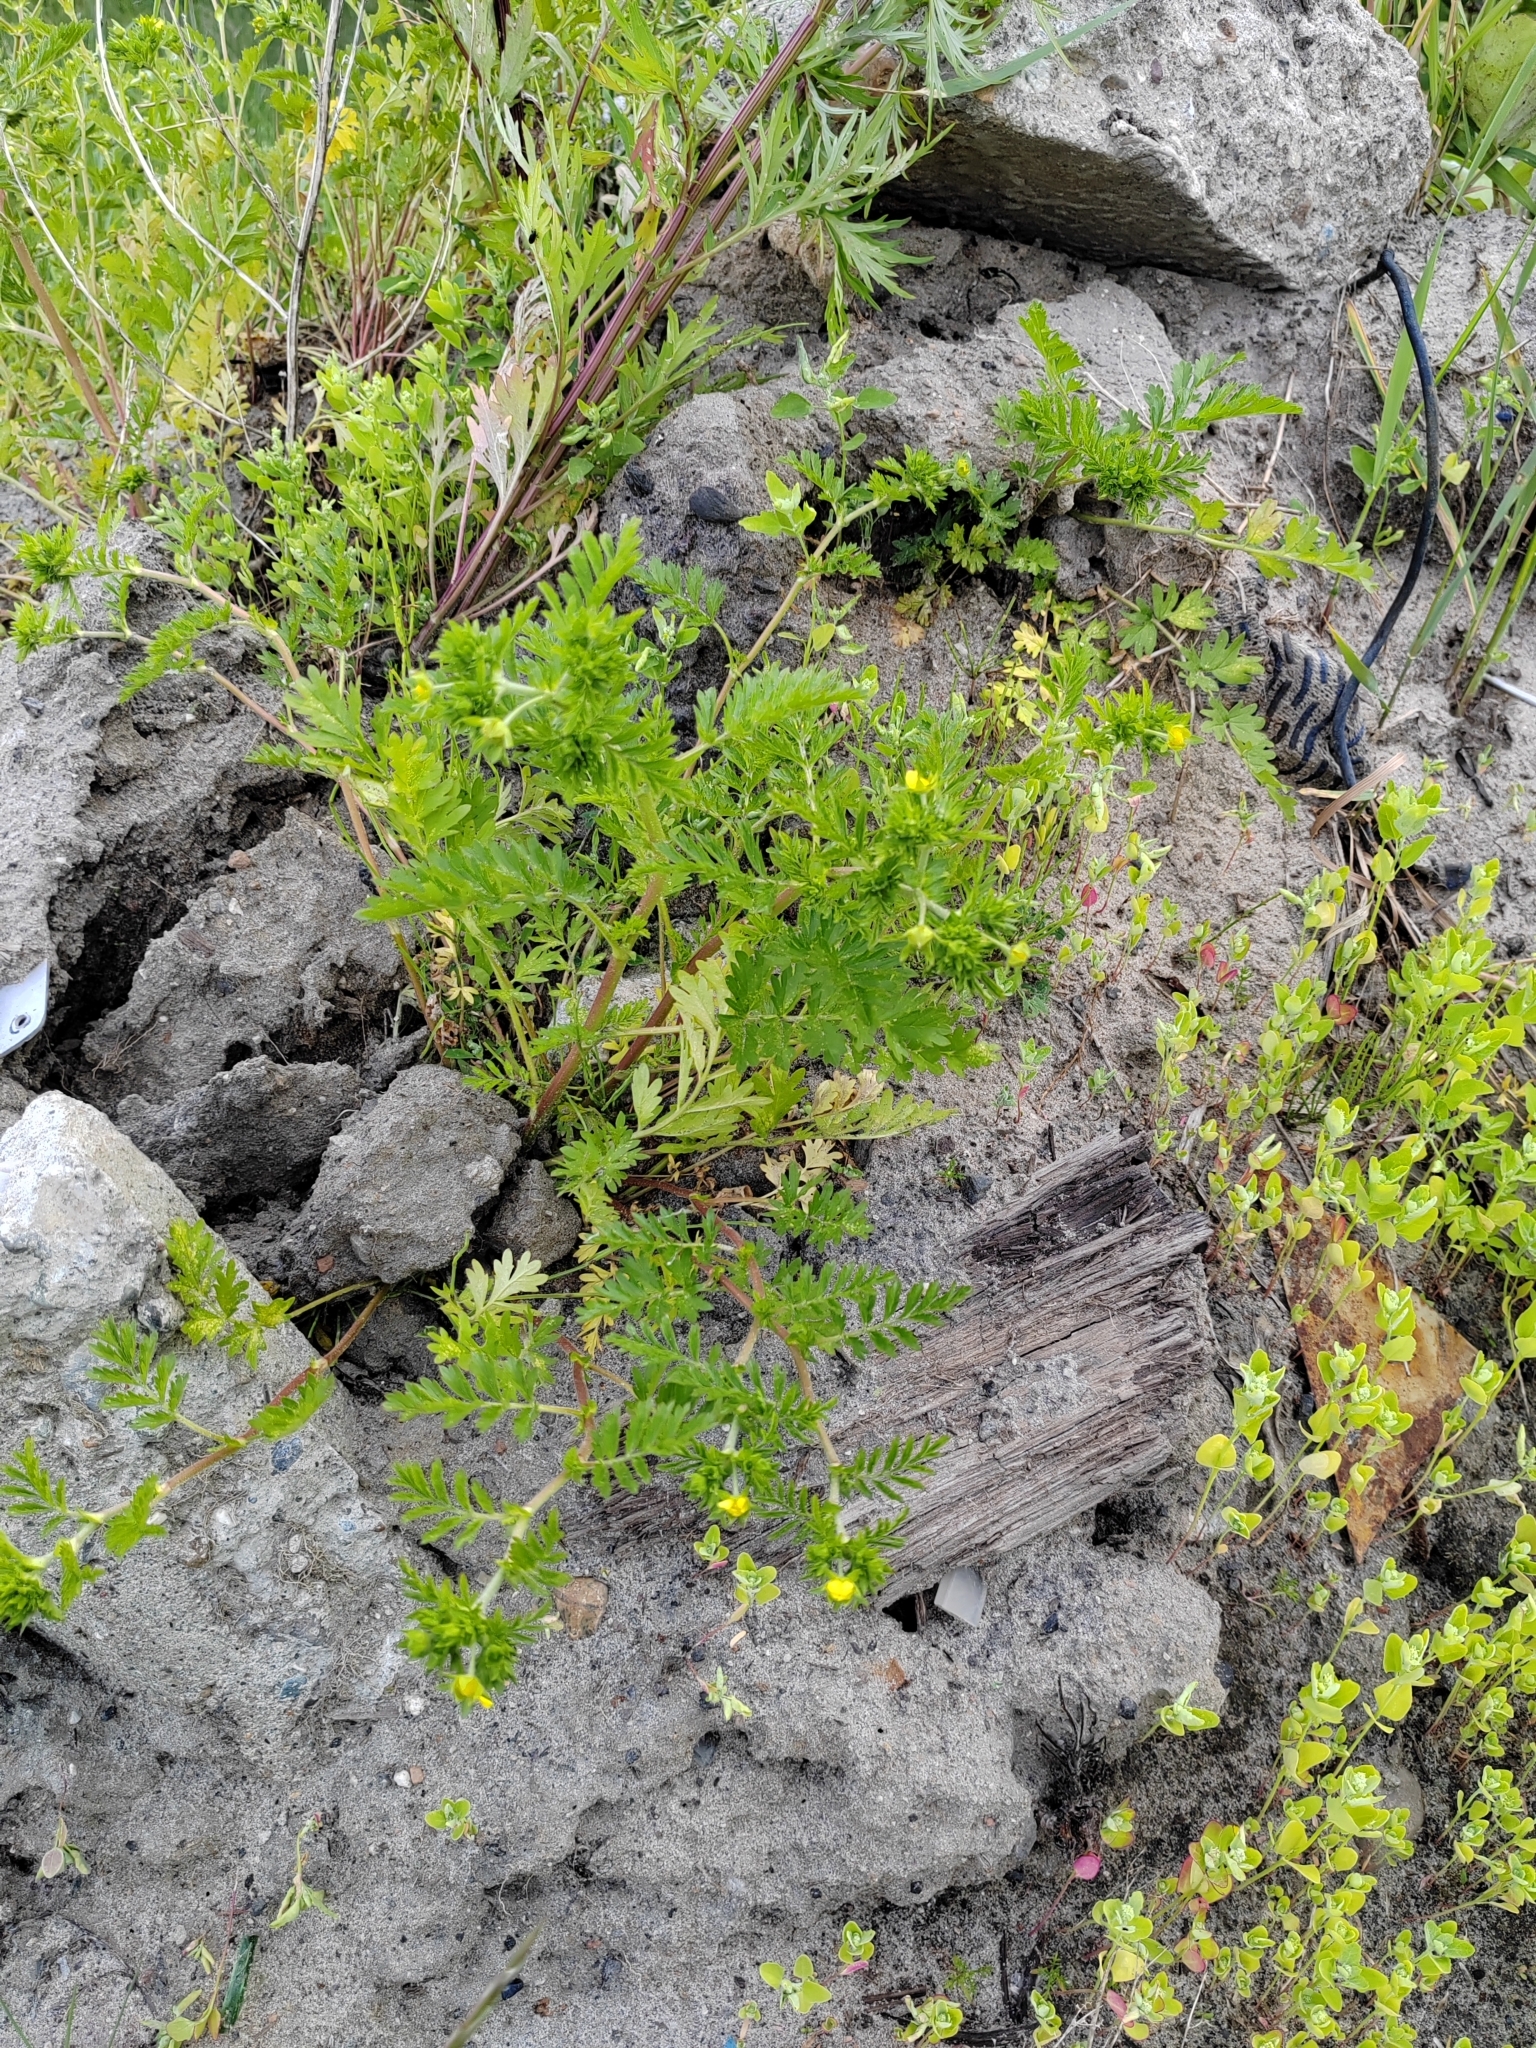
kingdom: Plantae
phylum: Tracheophyta
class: Magnoliopsida
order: Rosales
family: Rosaceae
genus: Potentilla
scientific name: Potentilla supina
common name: Prostrate cinquefoil
